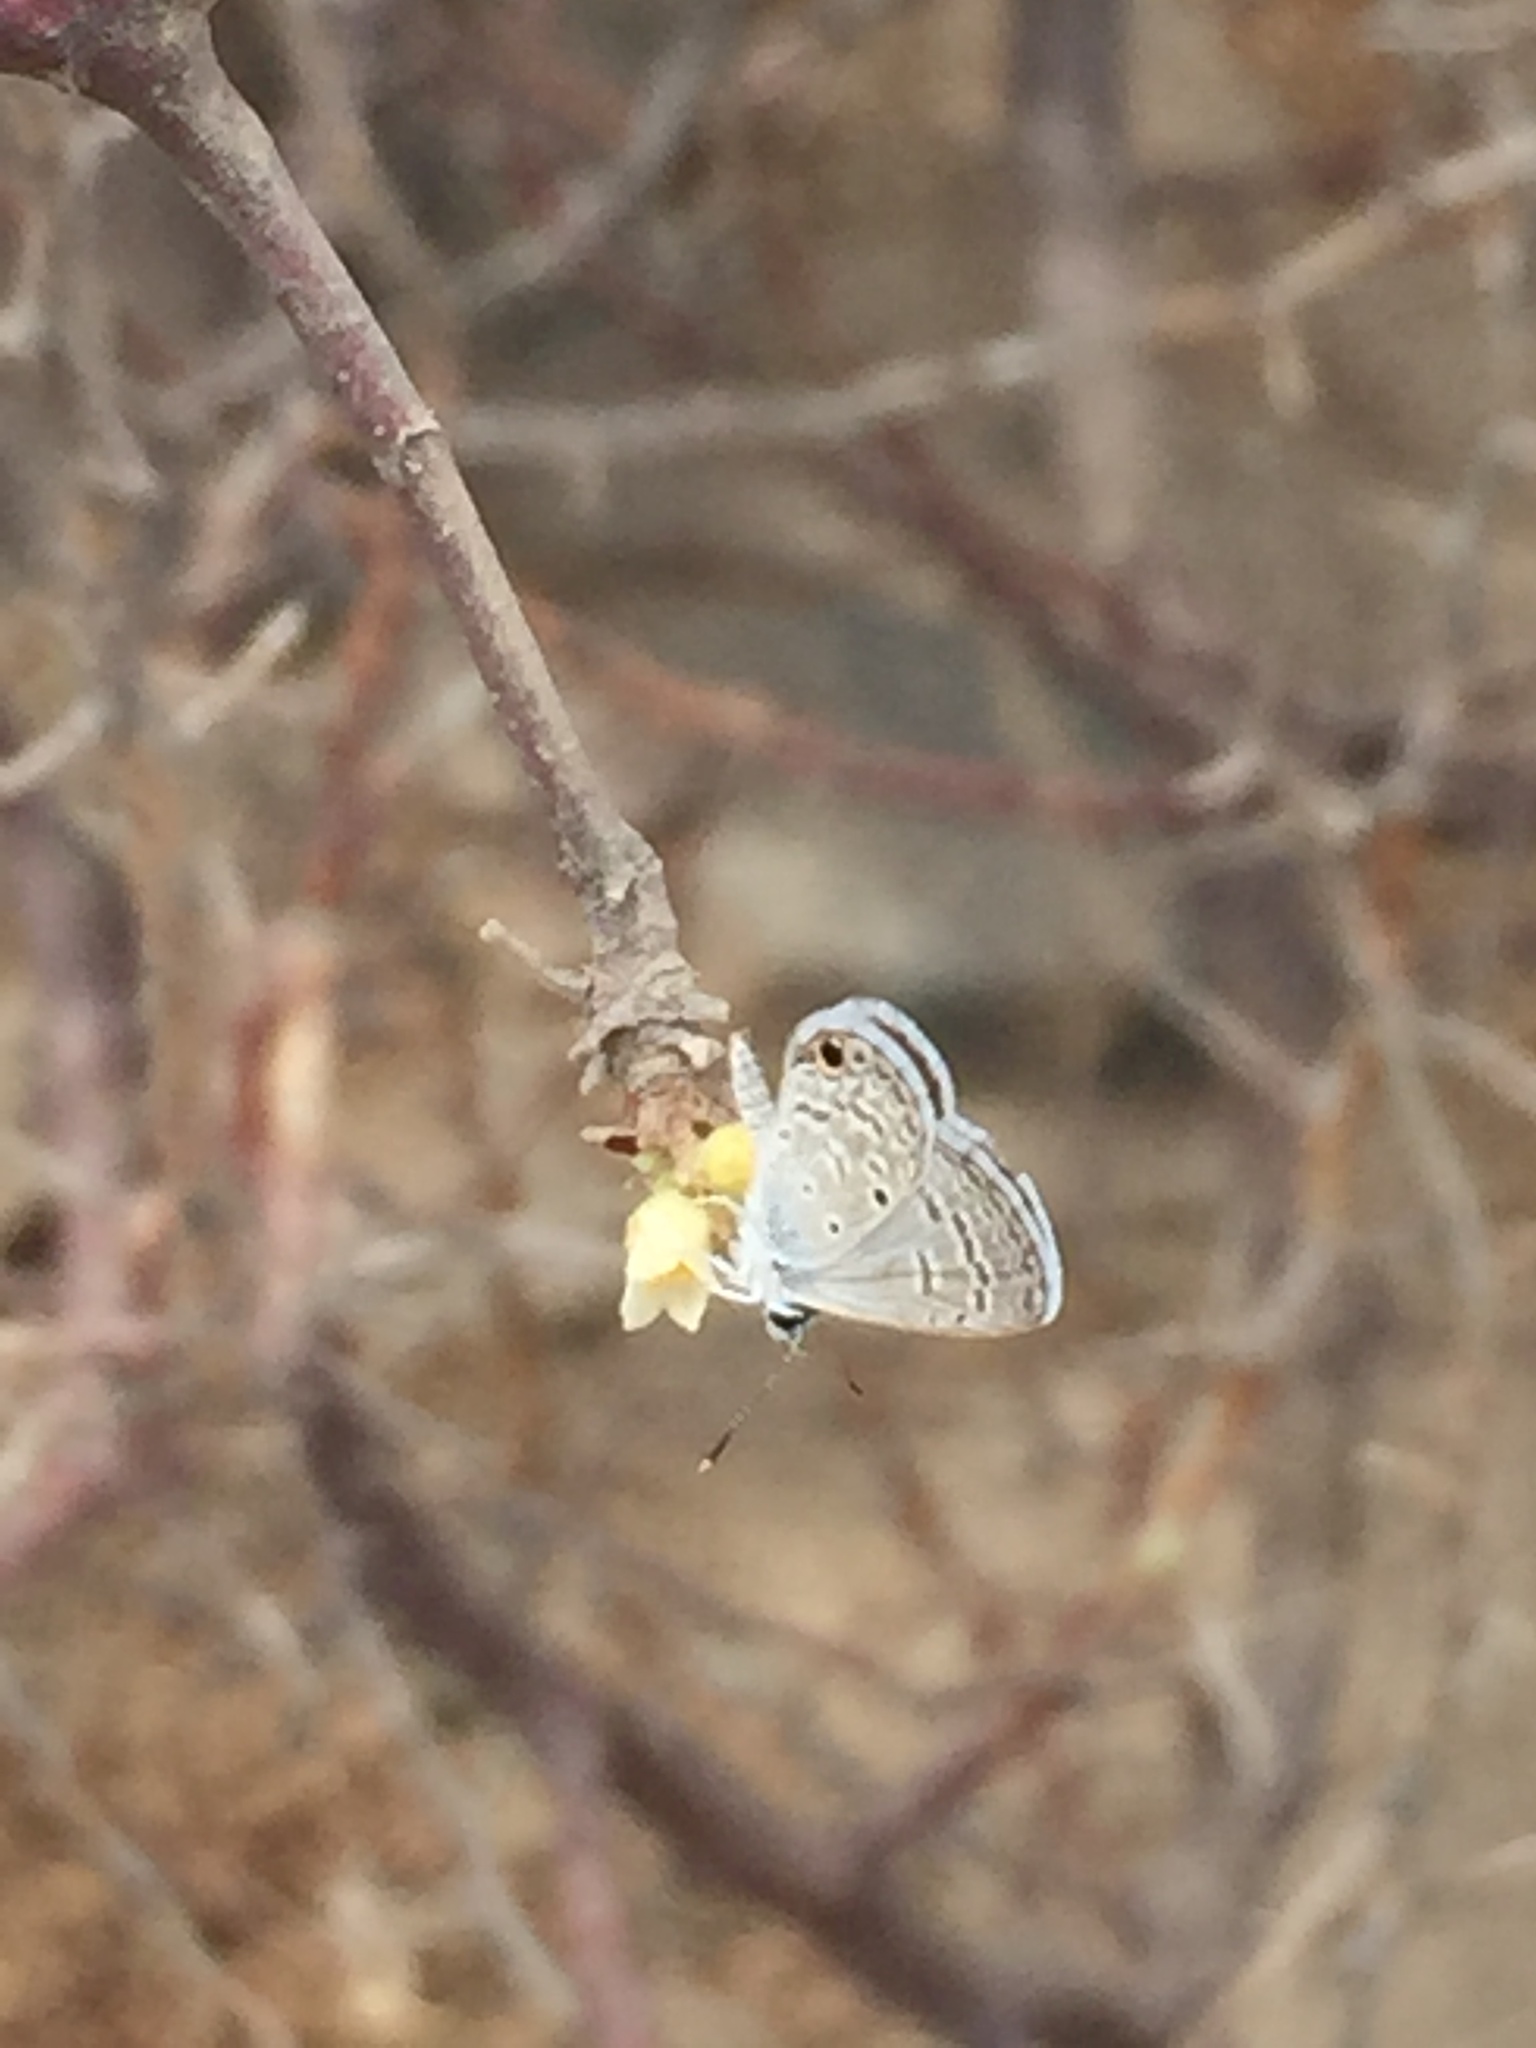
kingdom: Animalia
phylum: Arthropoda
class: Insecta
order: Lepidoptera
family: Lycaenidae
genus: Hemiargus
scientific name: Hemiargus ceraunus
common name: Ceraunus blue
